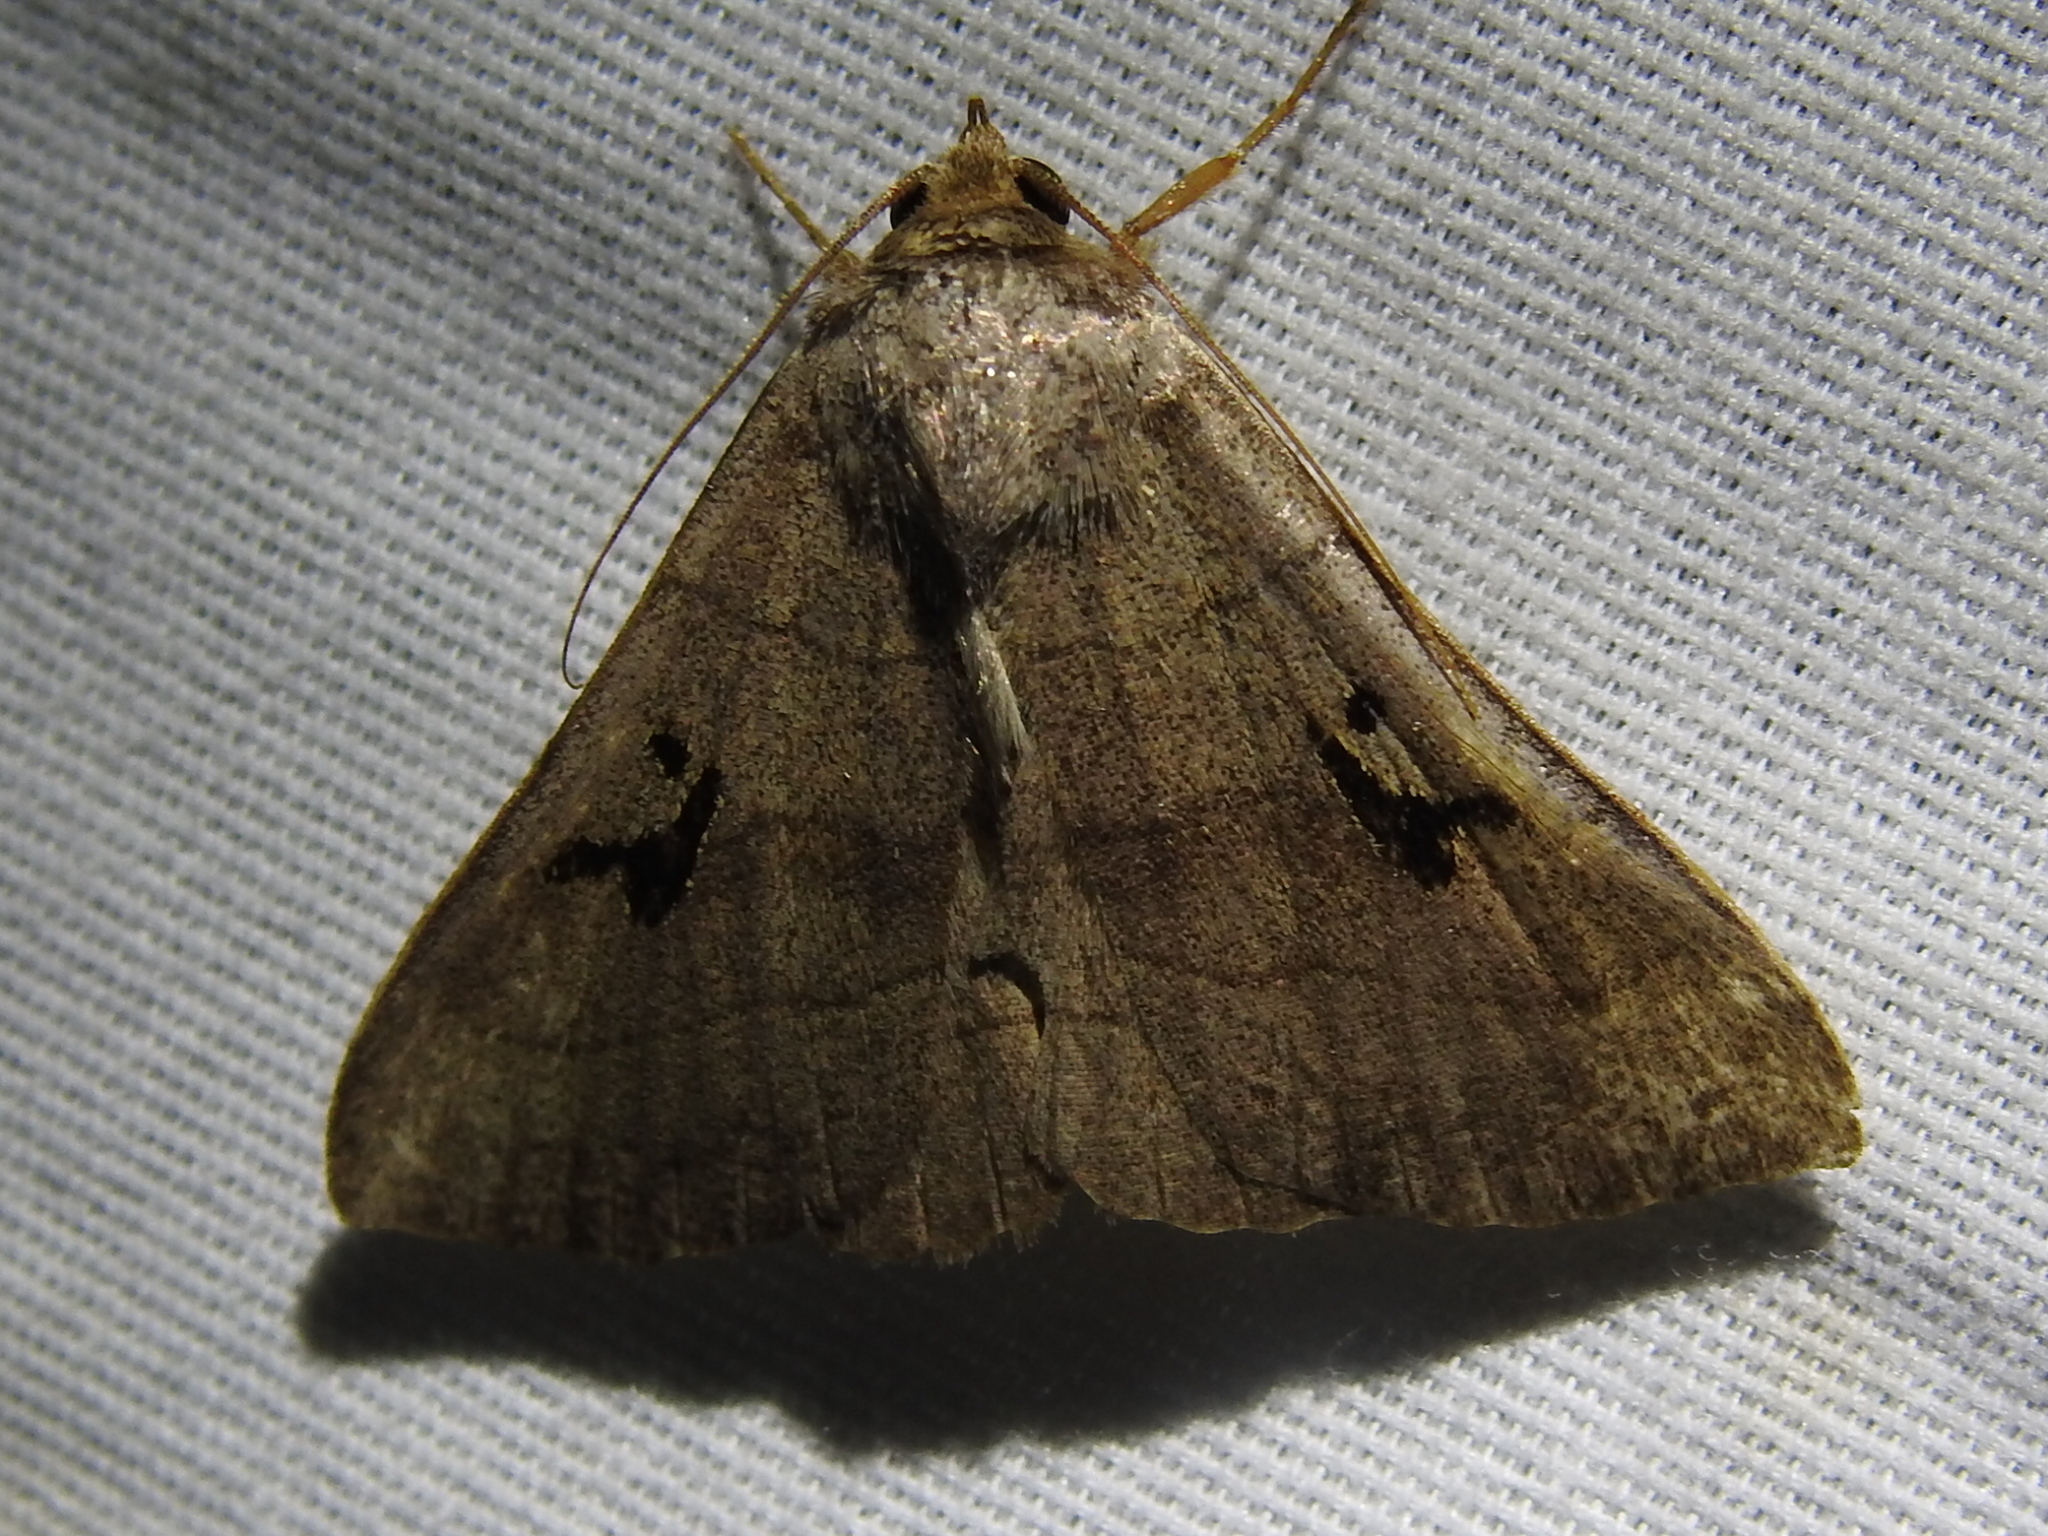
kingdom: Animalia
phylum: Arthropoda
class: Insecta
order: Lepidoptera
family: Erebidae
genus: Panopoda
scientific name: Panopoda carneicosta
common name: Brown panopoda moth
